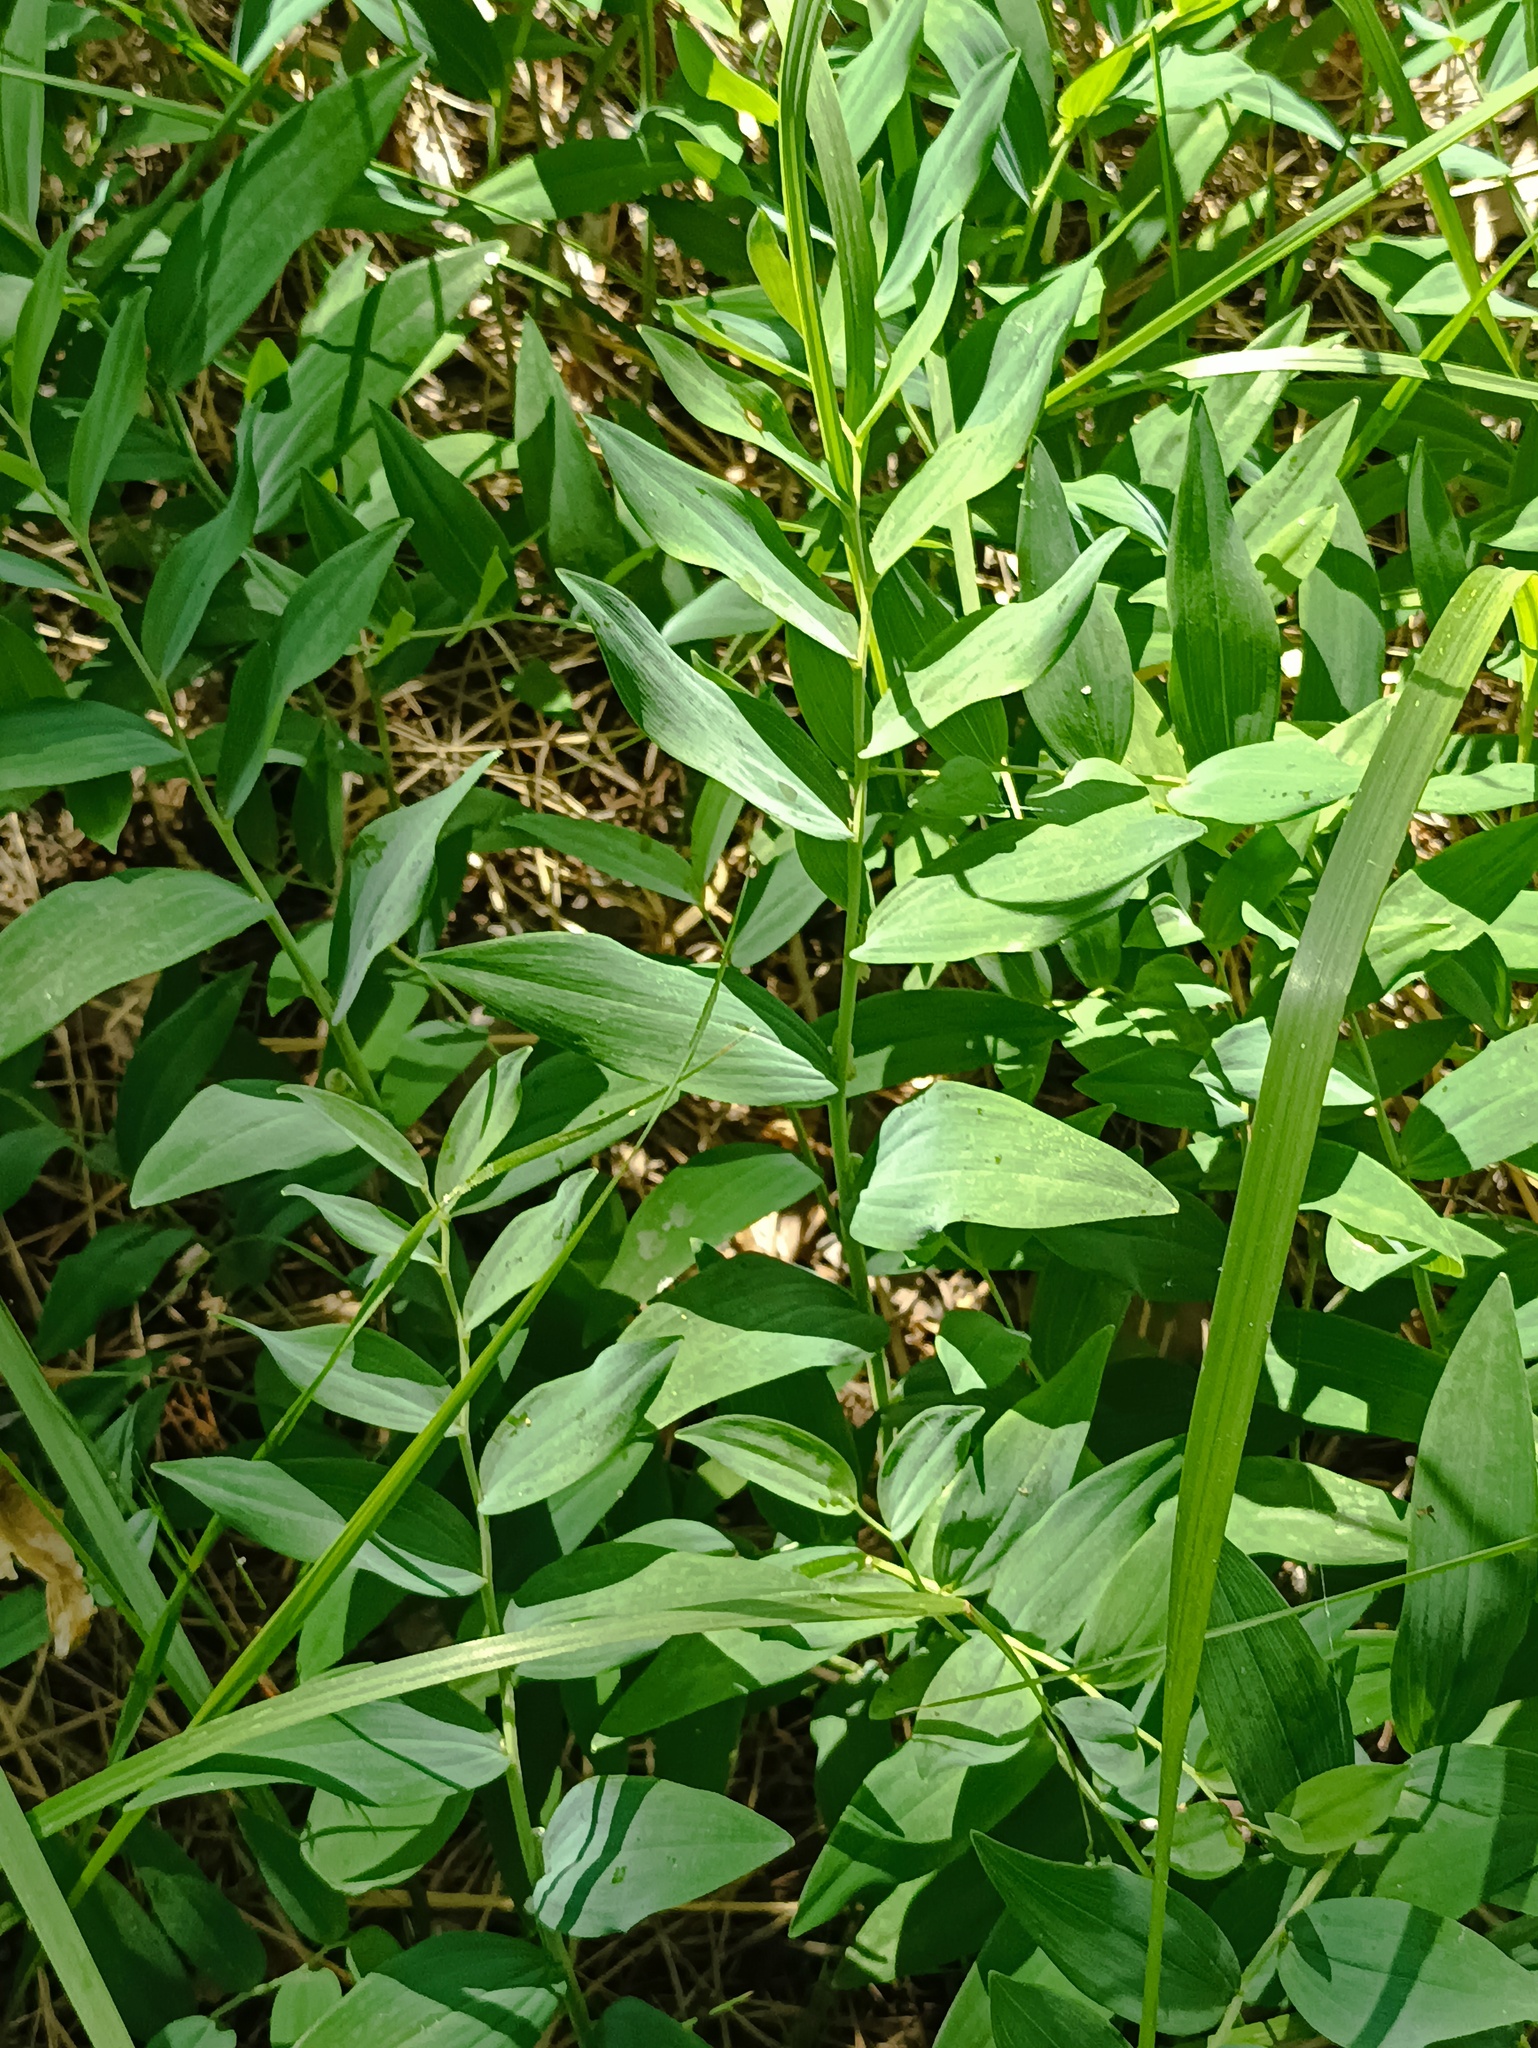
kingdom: Plantae
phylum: Tracheophyta
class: Liliopsida
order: Asparagales
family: Asparagaceae
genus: Polygonatum
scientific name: Polygonatum odoratum
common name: Angular solomon's-seal
